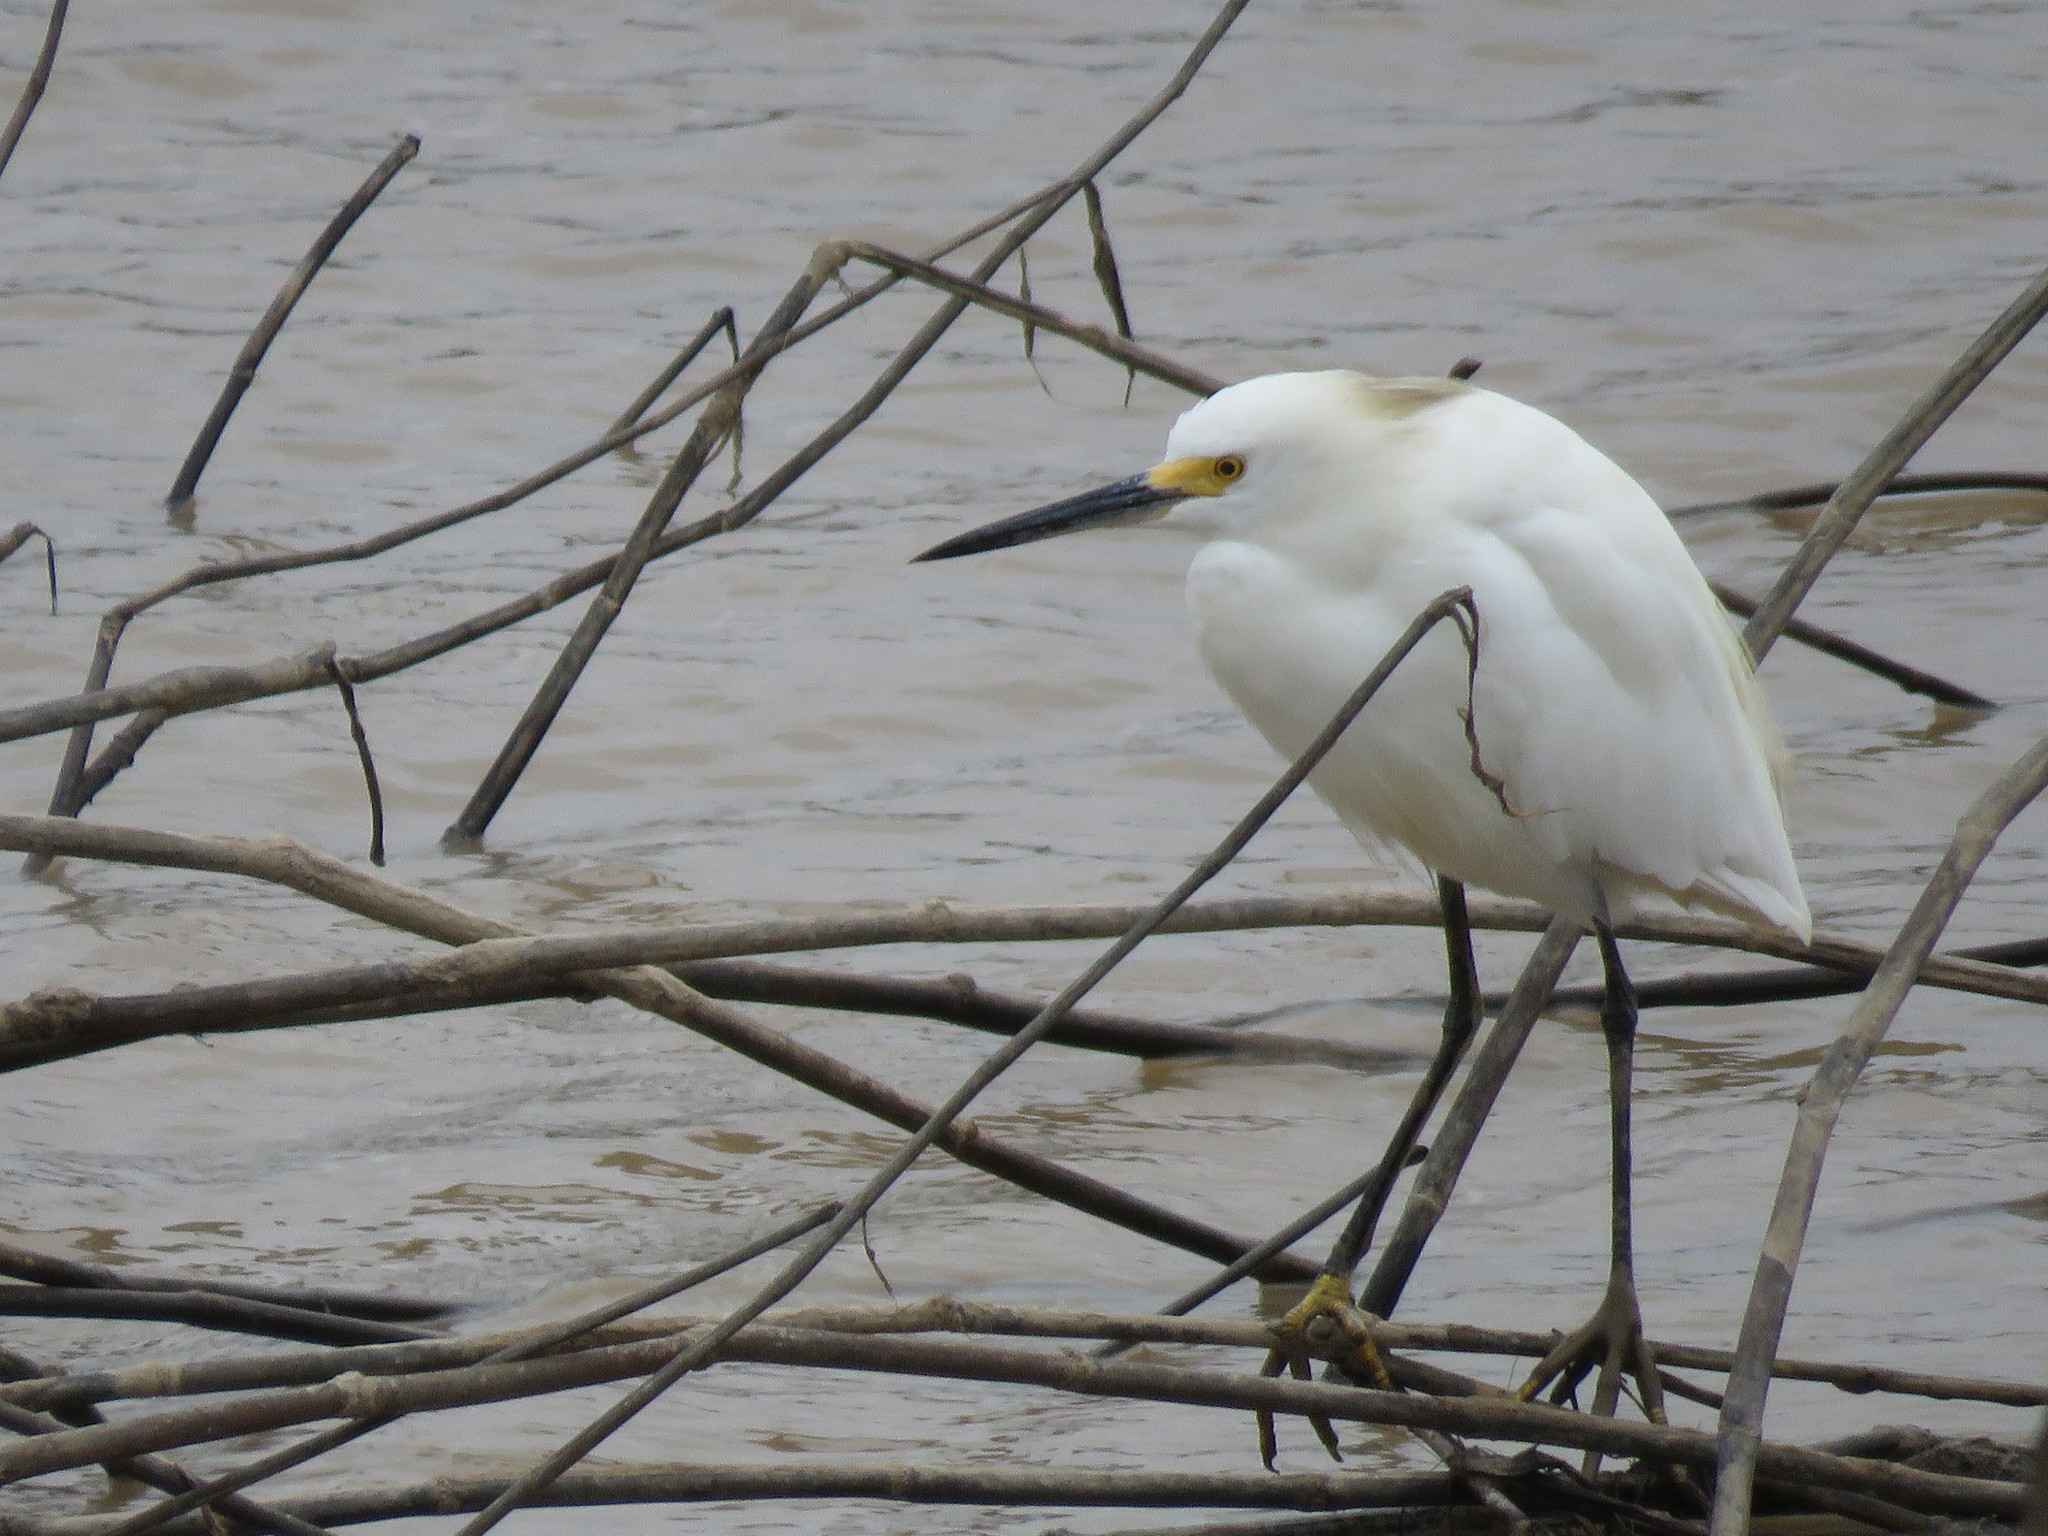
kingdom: Animalia
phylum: Chordata
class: Aves
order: Pelecaniformes
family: Ardeidae
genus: Egretta
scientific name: Egretta thula
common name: Snowy egret
